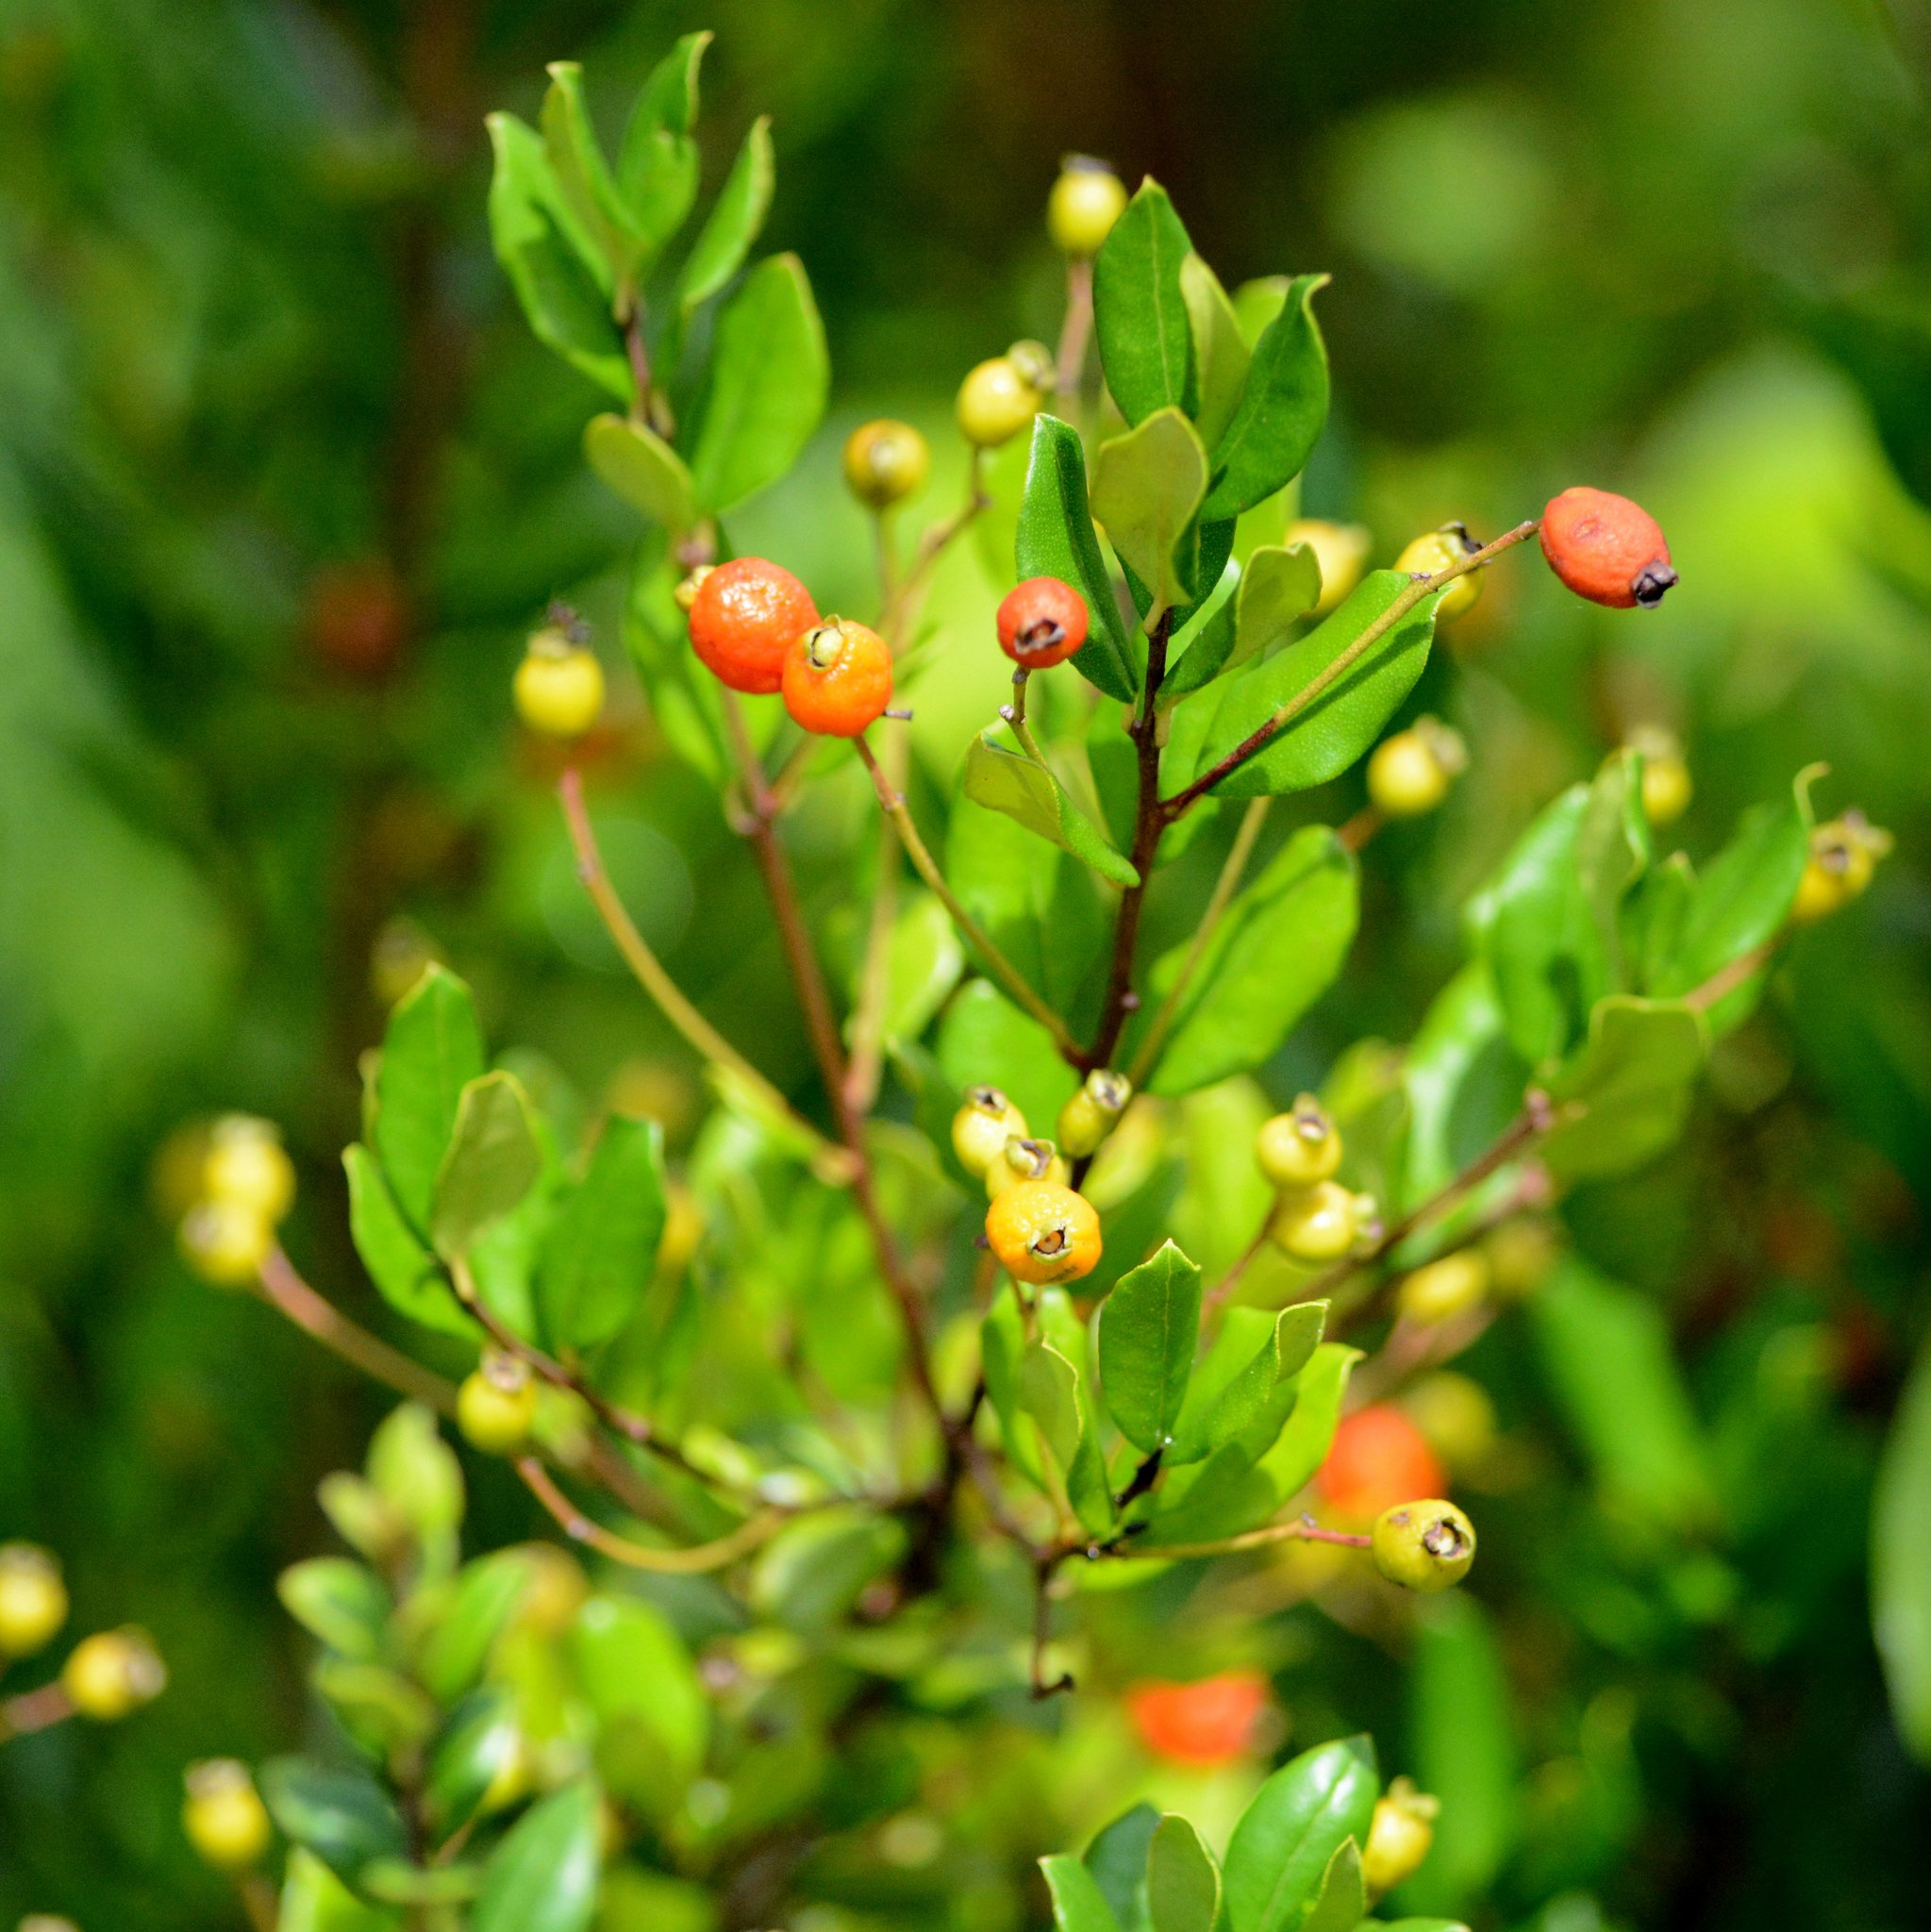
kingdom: Plantae
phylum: Tracheophyta
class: Magnoliopsida
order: Myrtales
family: Myrtaceae
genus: Myrcianthes
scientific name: Myrcianthes fragrans
